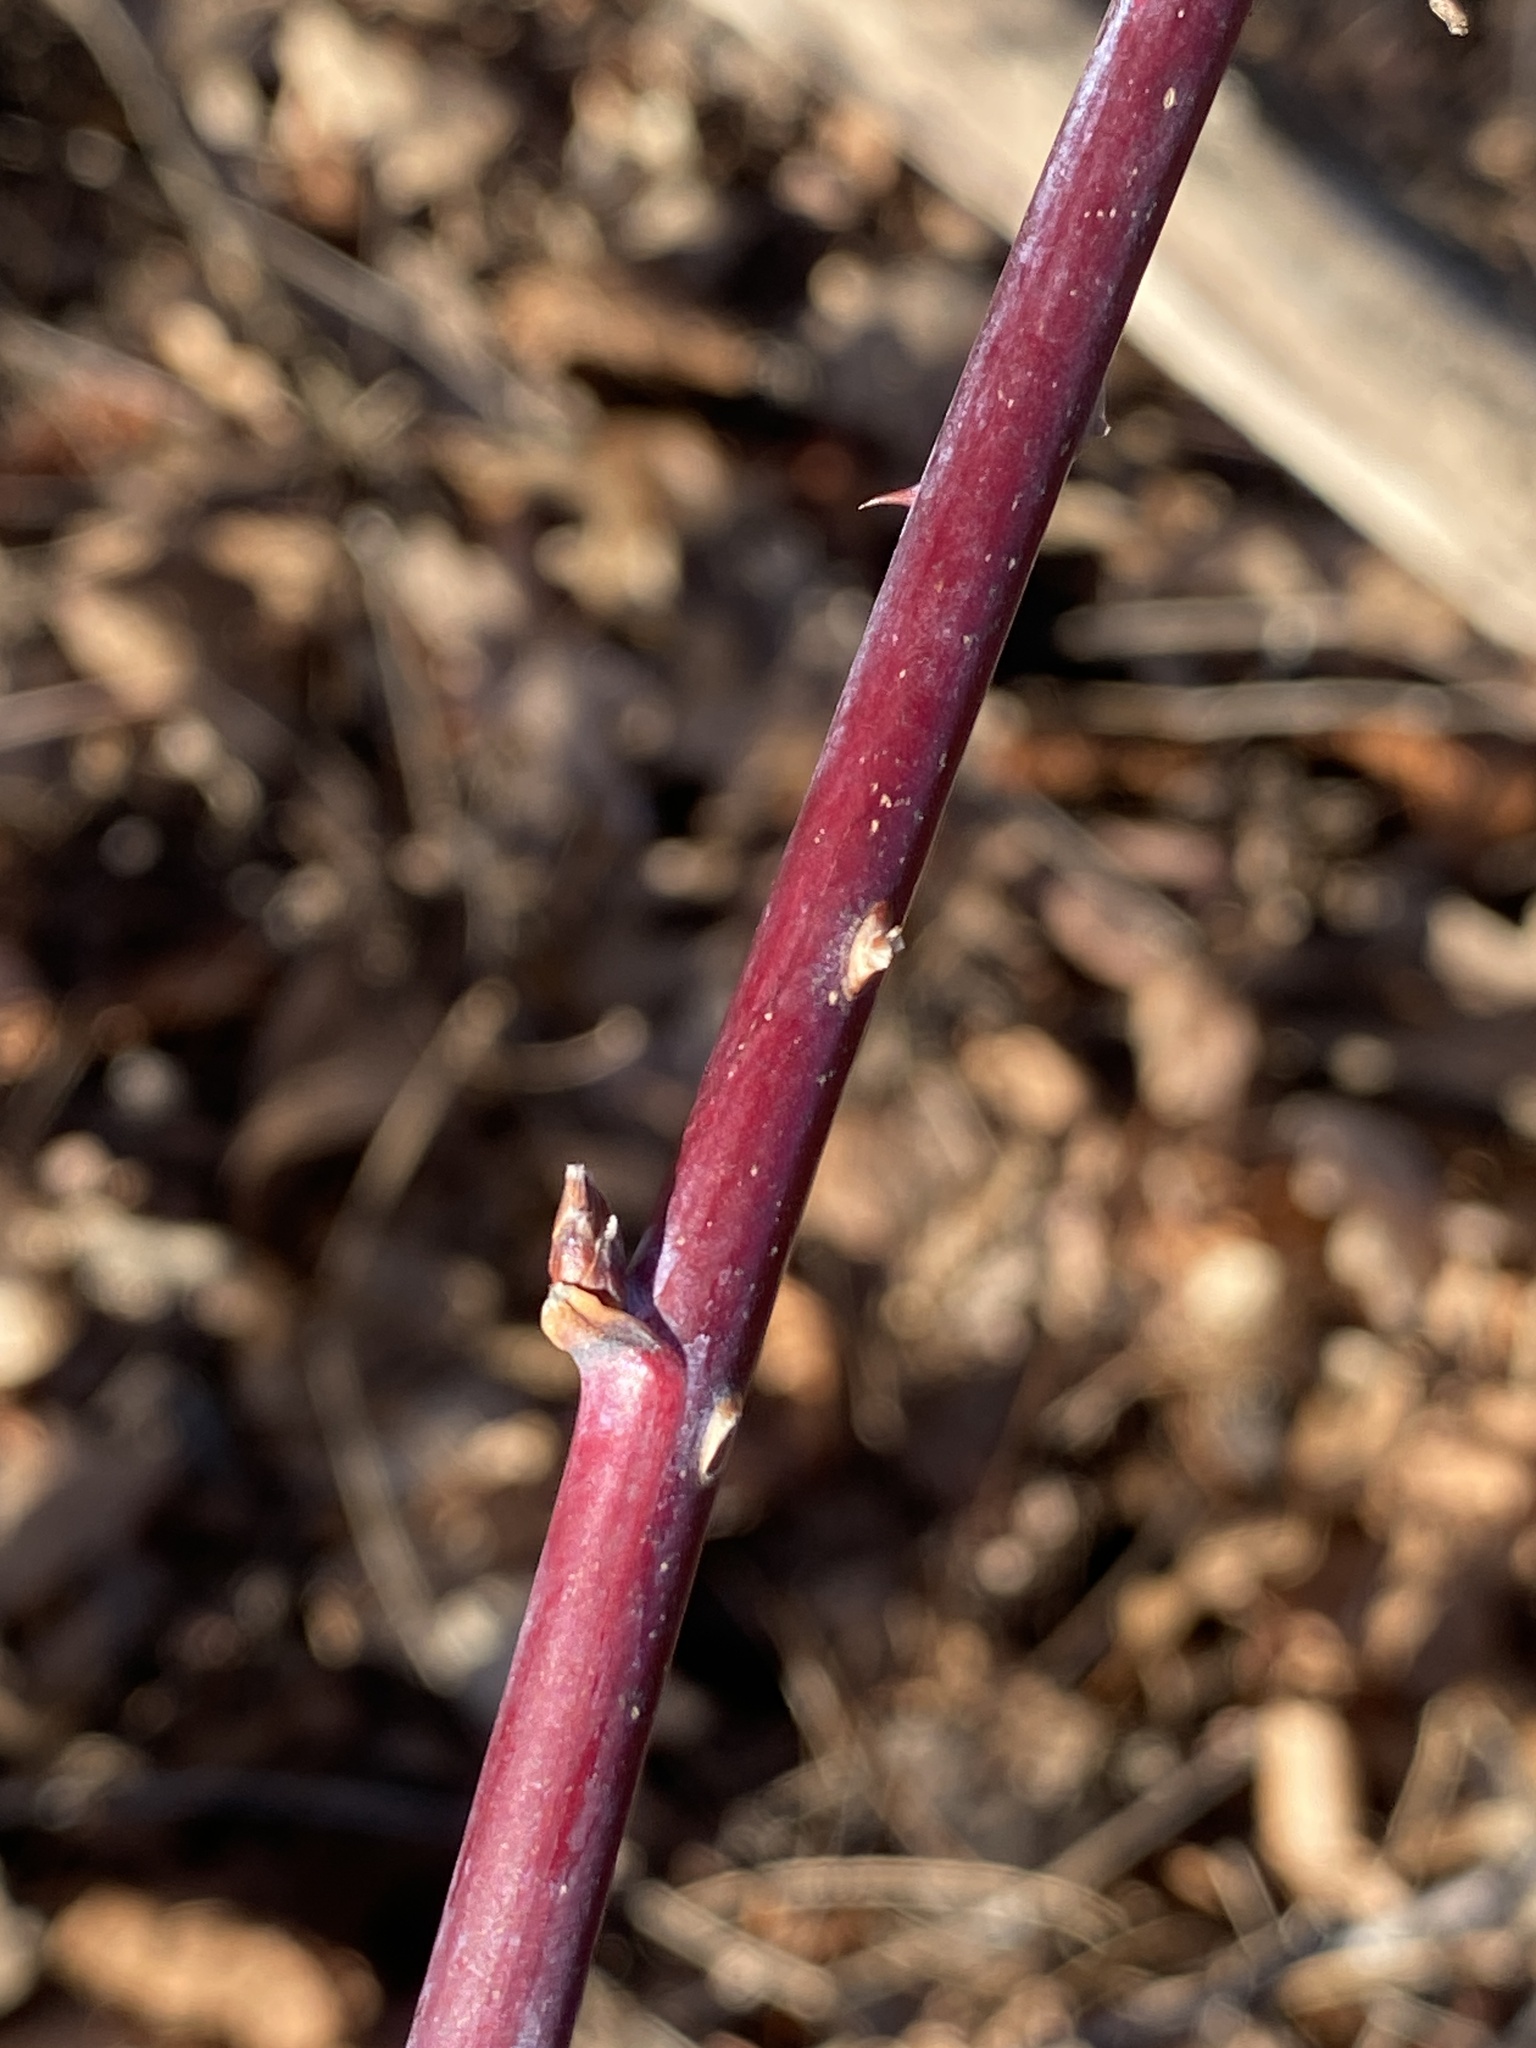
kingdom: Plantae
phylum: Tracheophyta
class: Magnoliopsida
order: Rosales
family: Rosaceae
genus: Rubus
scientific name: Rubus occidentalis
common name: Black raspberry
